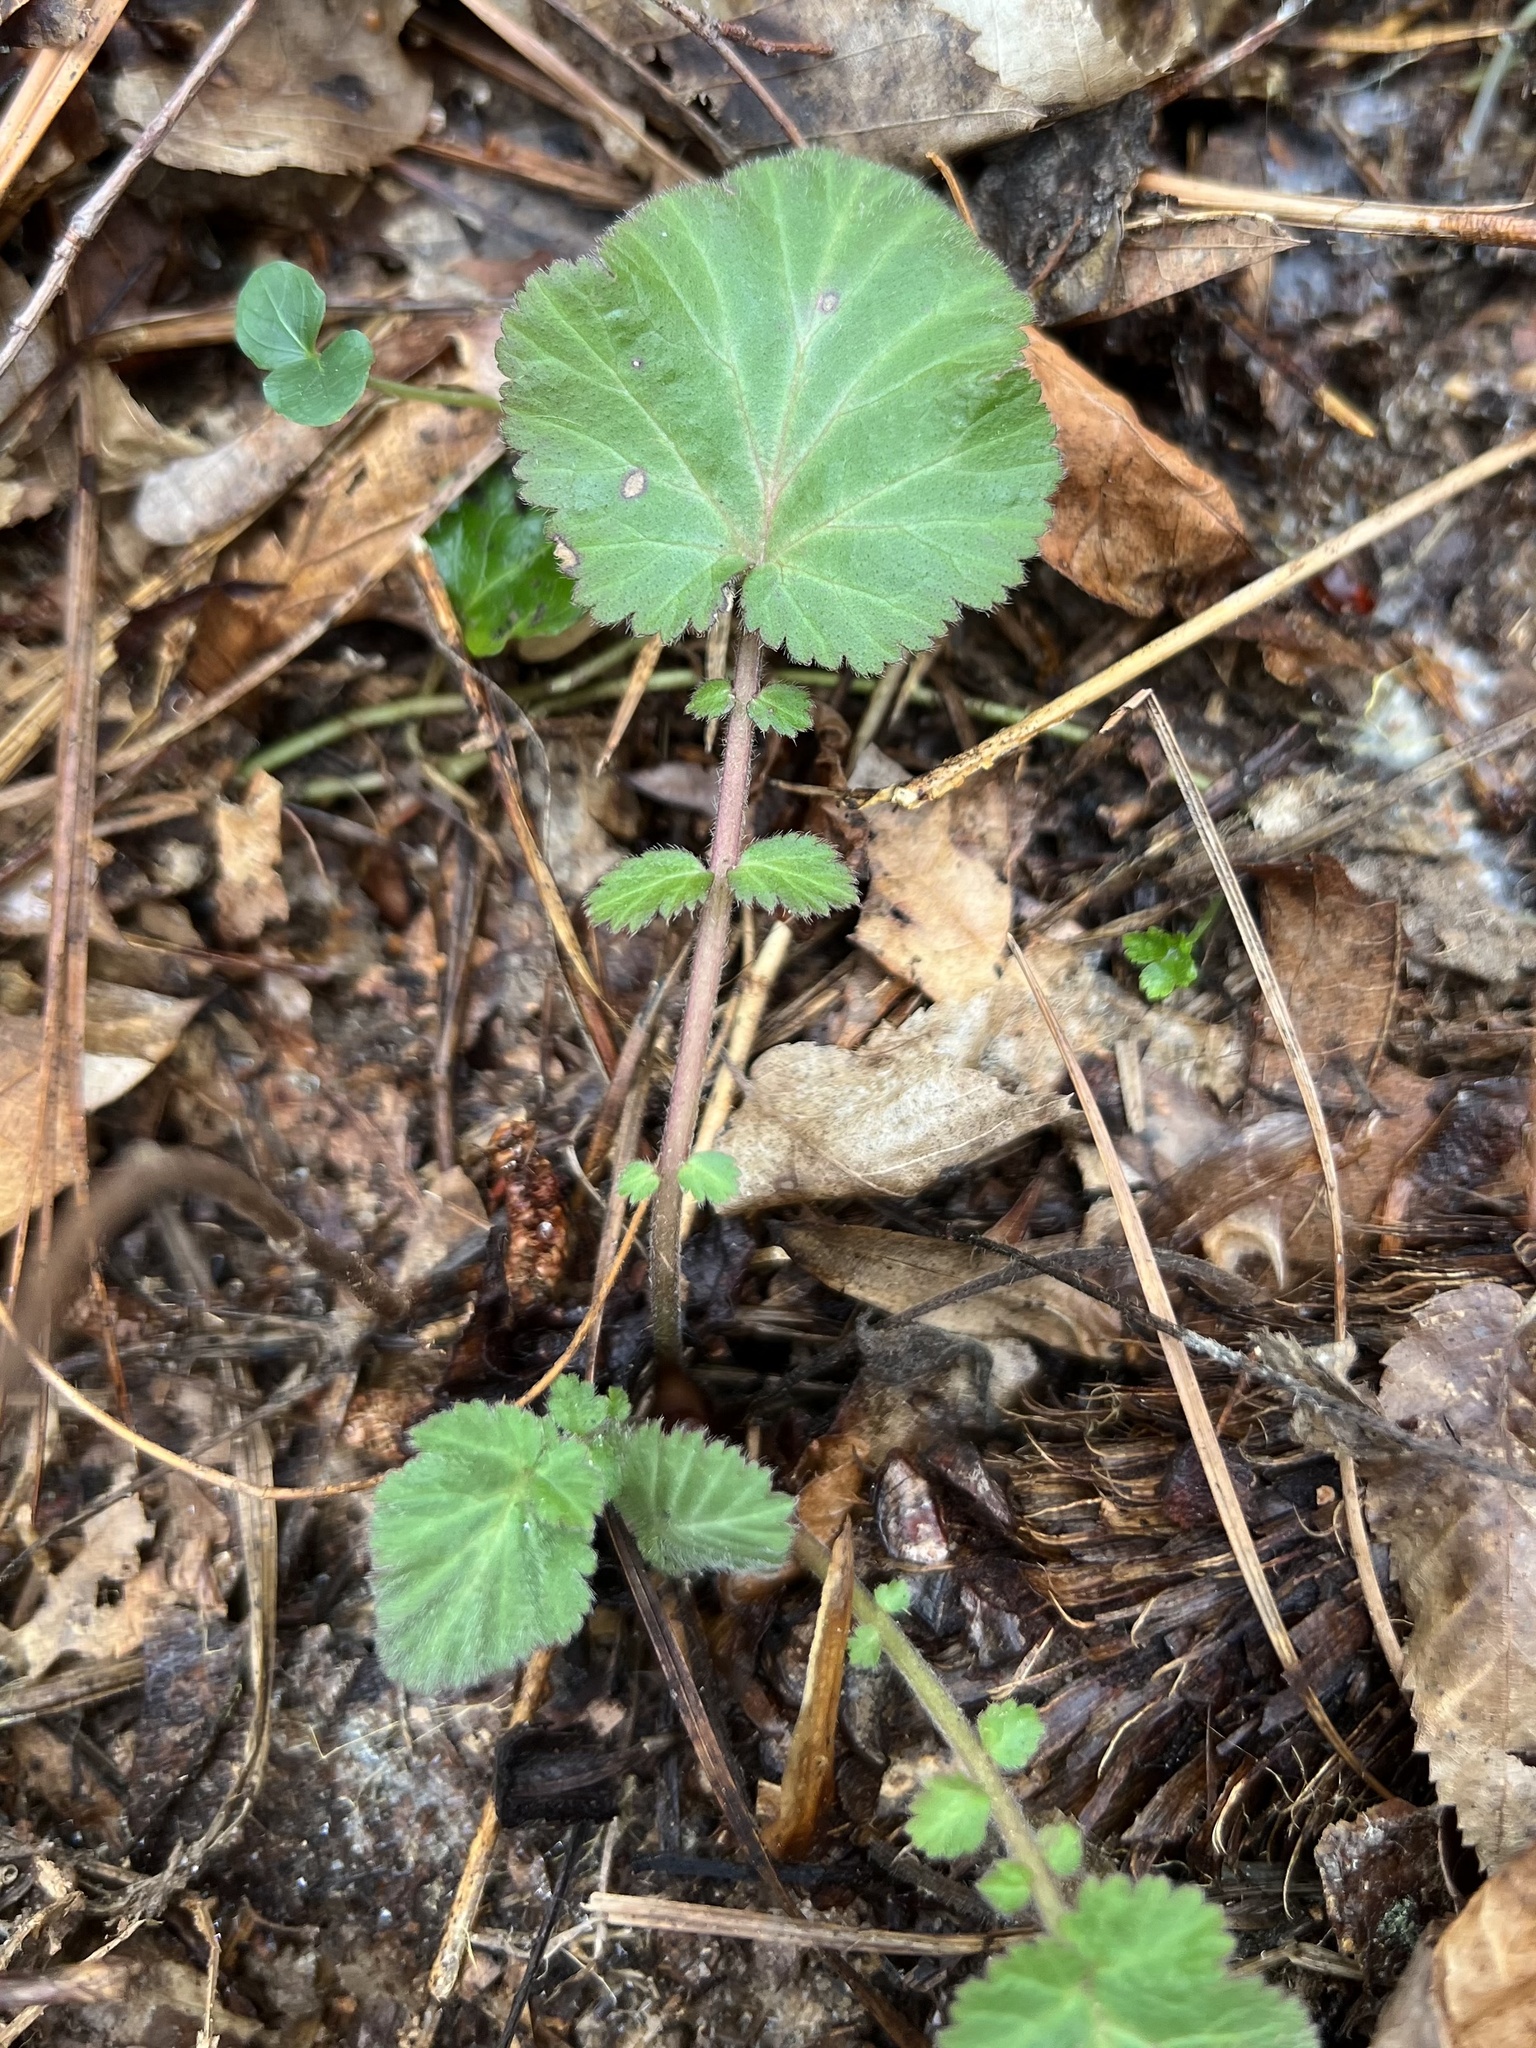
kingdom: Plantae
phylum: Tracheophyta
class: Magnoliopsida
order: Rosales
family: Rosaceae
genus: Geum
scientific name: Geum canadense
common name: White avens
